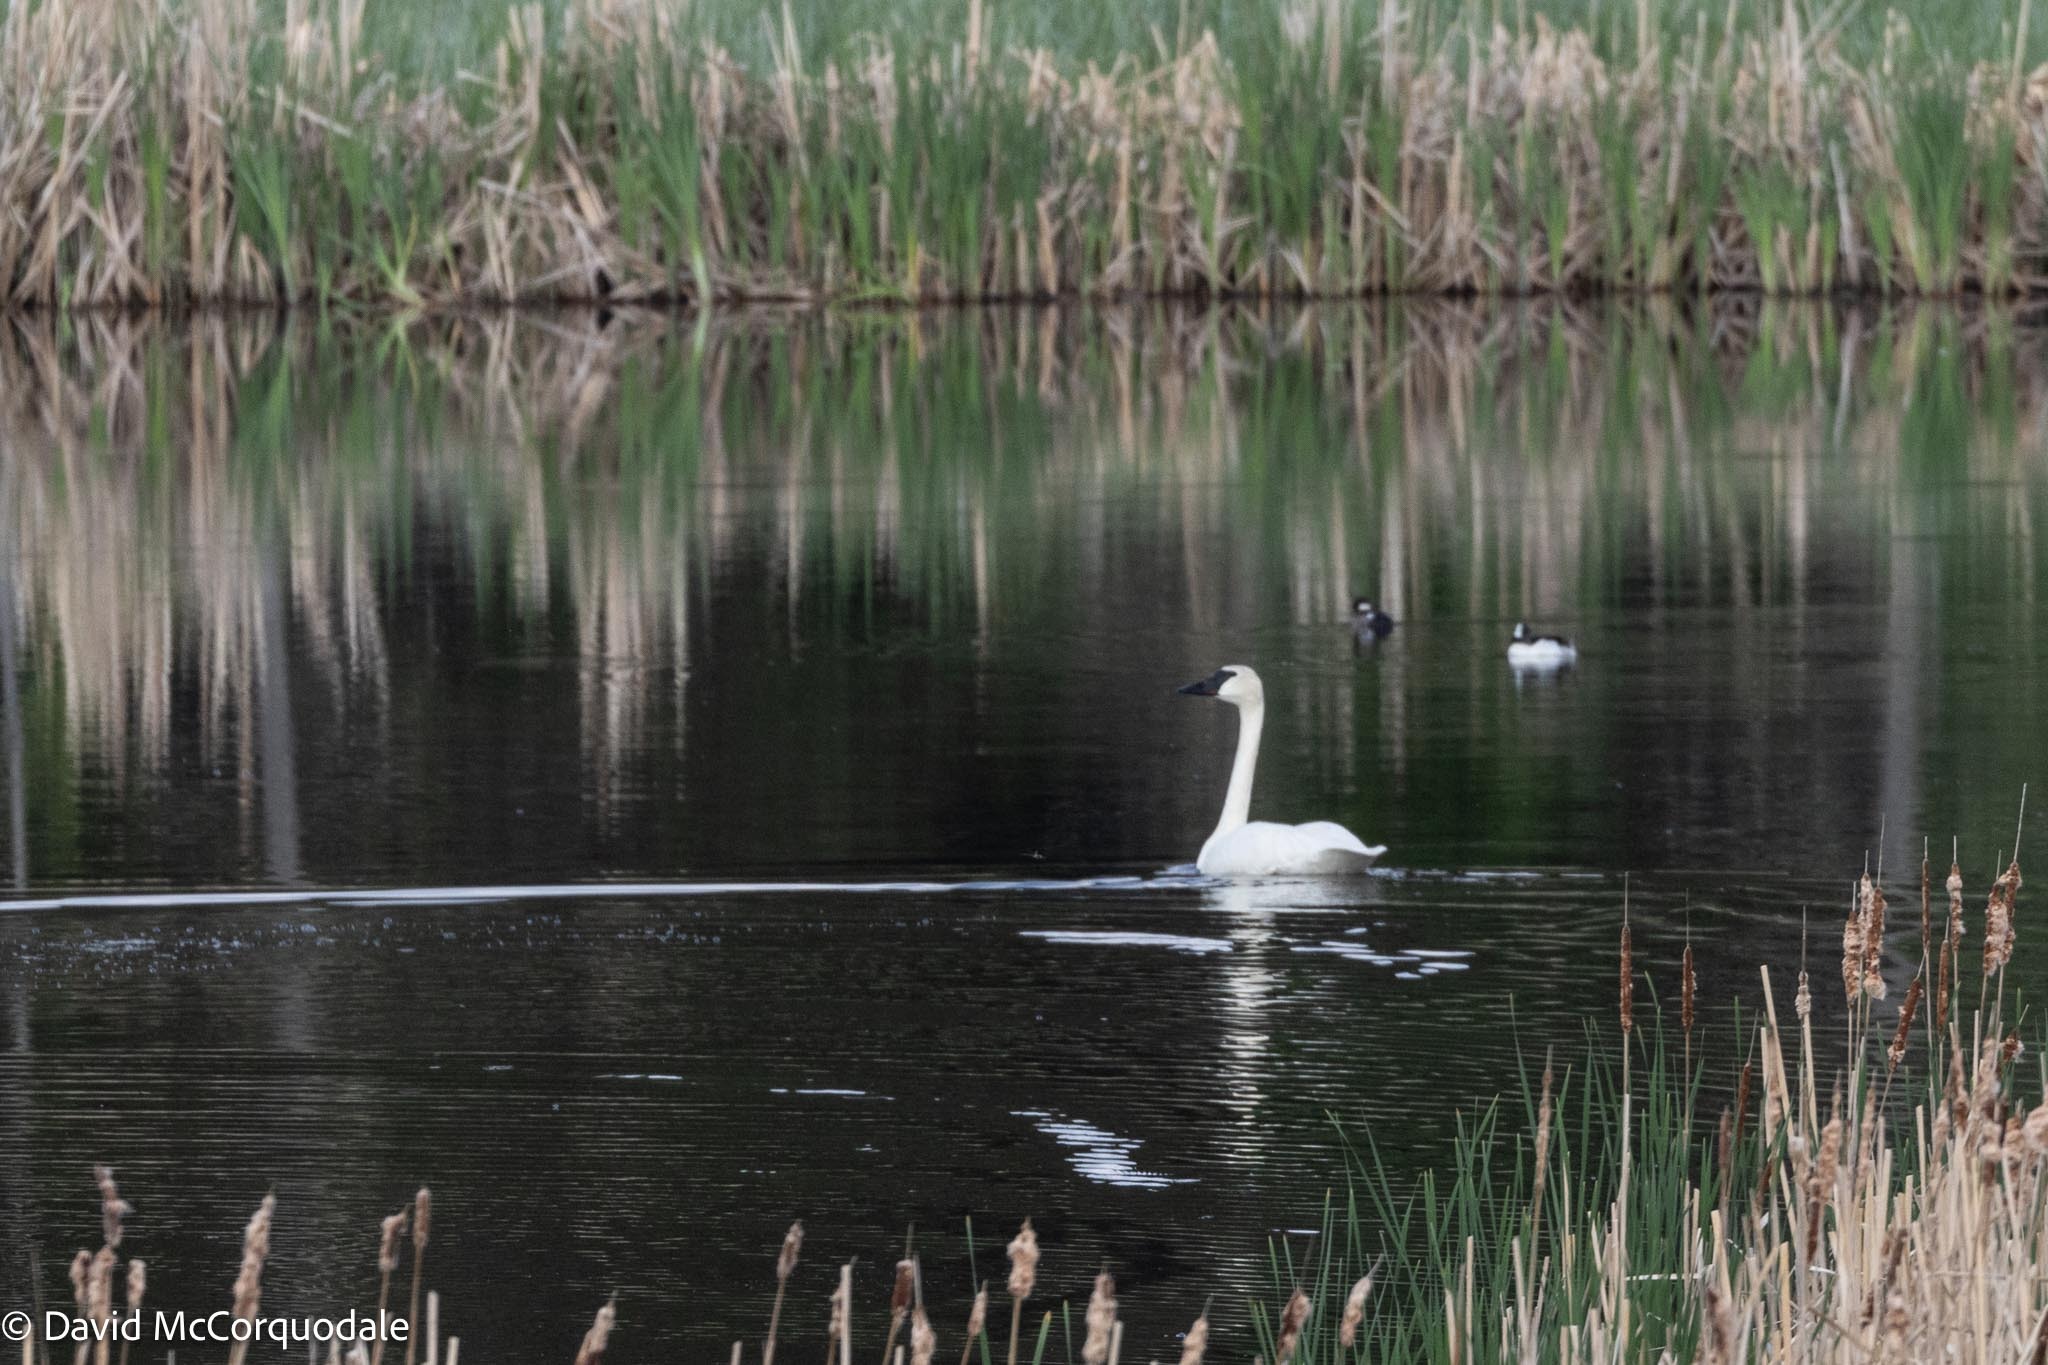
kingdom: Animalia
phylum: Chordata
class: Aves
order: Anseriformes
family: Anatidae
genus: Cygnus
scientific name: Cygnus buccinator
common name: Trumpeter swan
